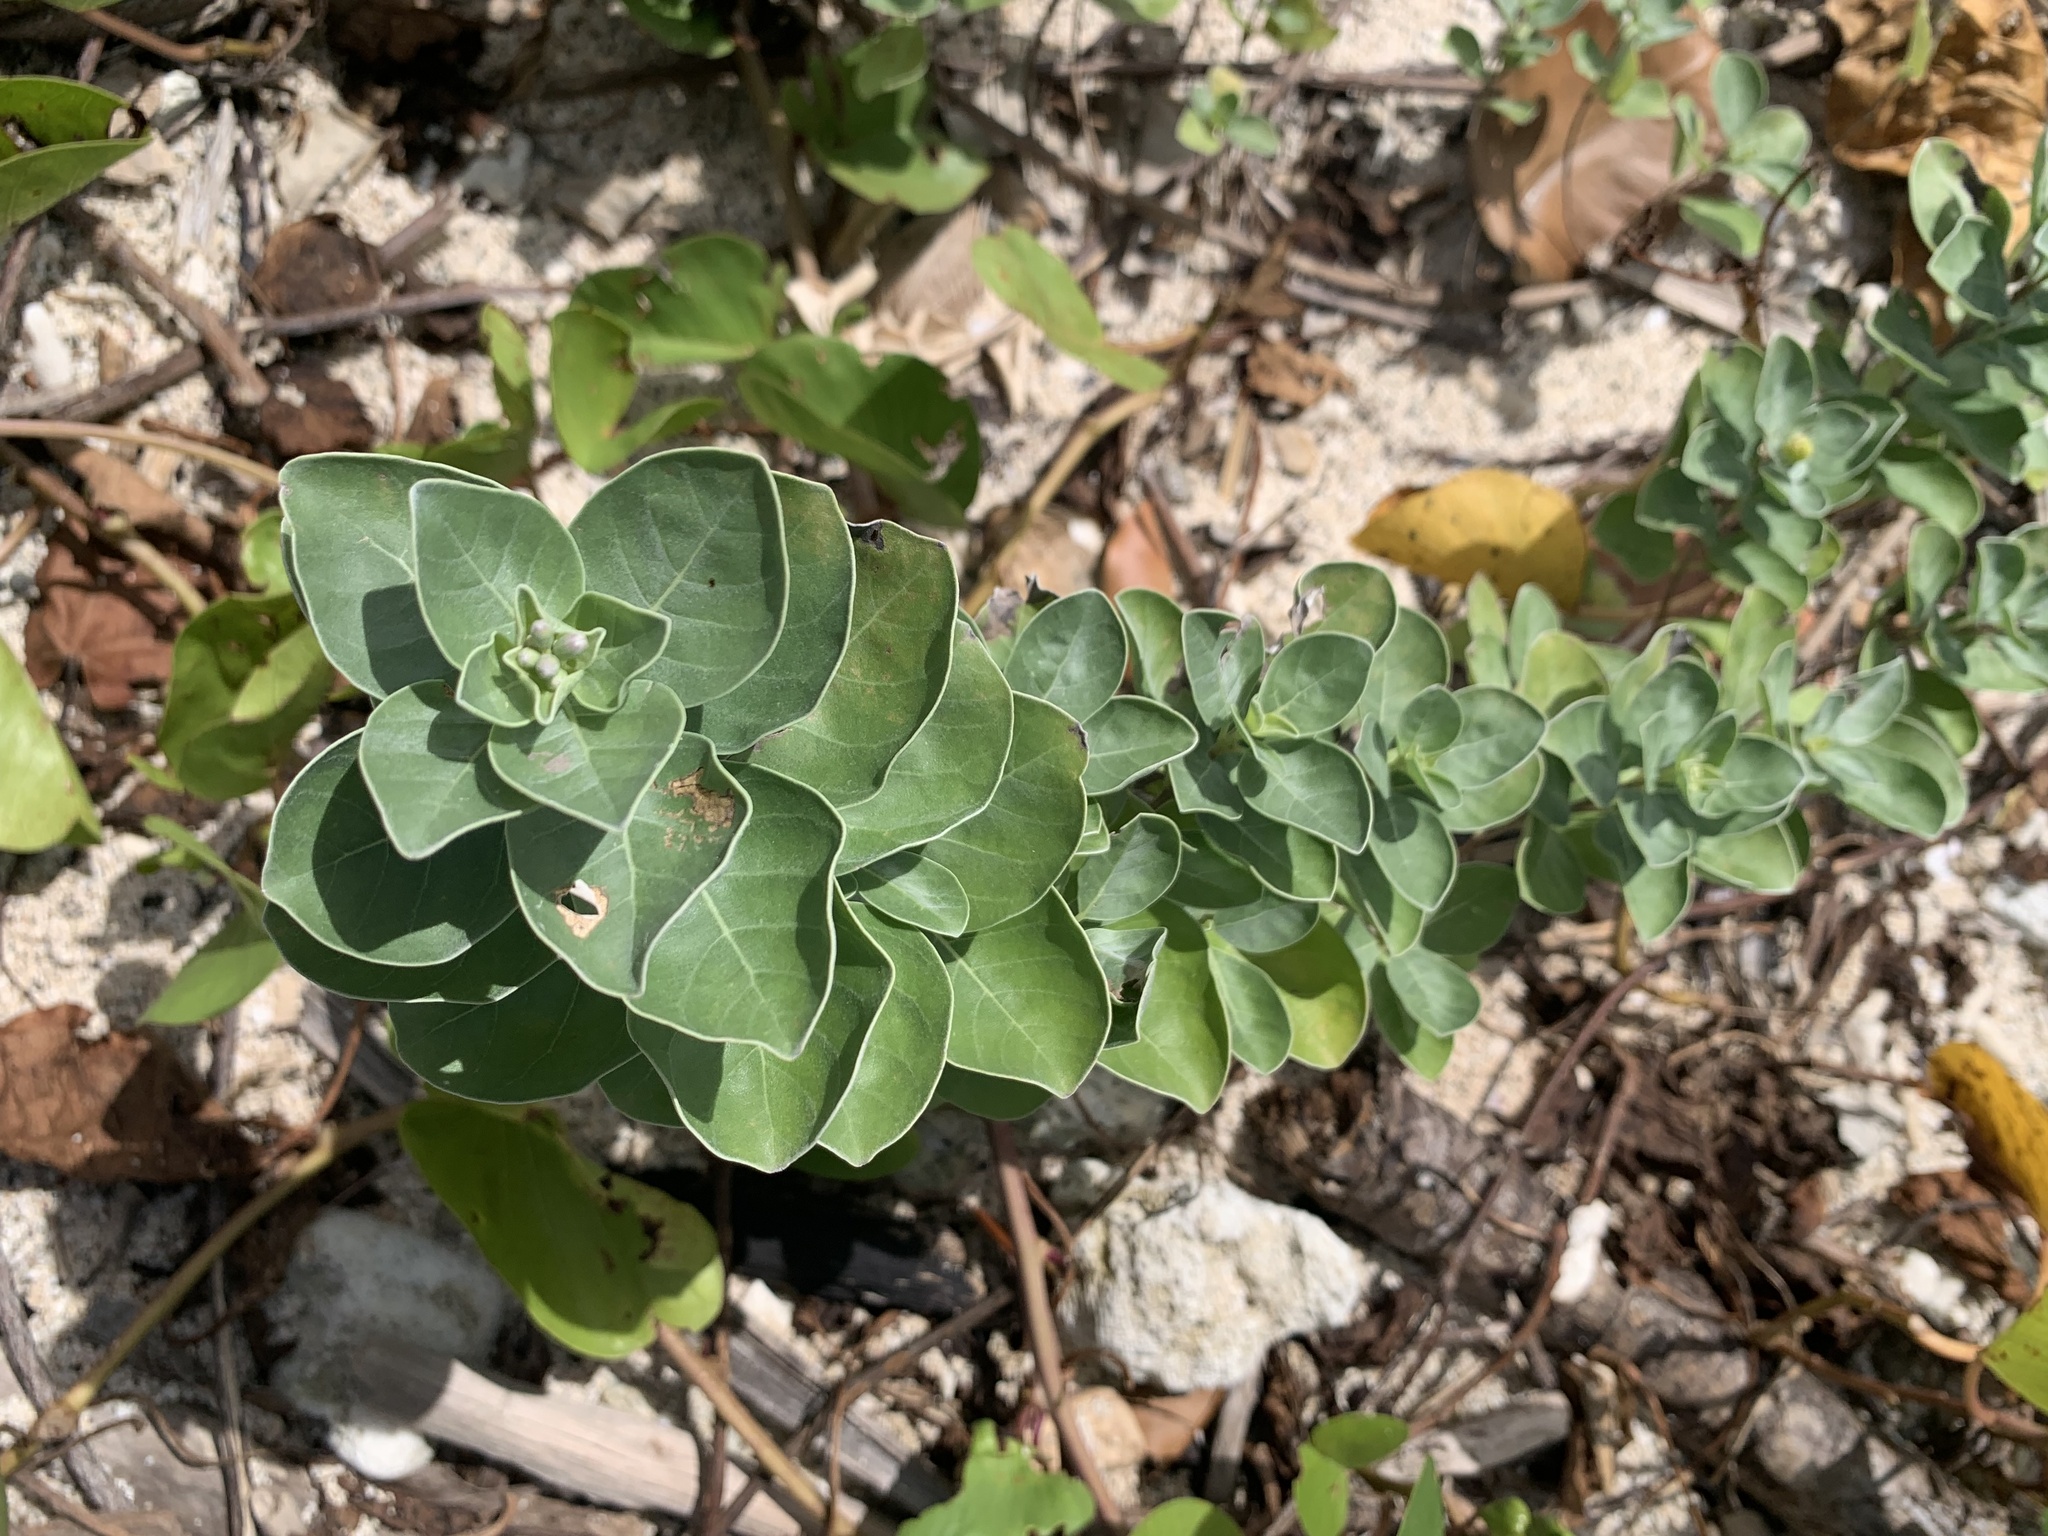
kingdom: Plantae
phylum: Tracheophyta
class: Magnoliopsida
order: Lamiales
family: Lamiaceae
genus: Vitex
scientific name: Vitex rotundifolia
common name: Beach vitex
